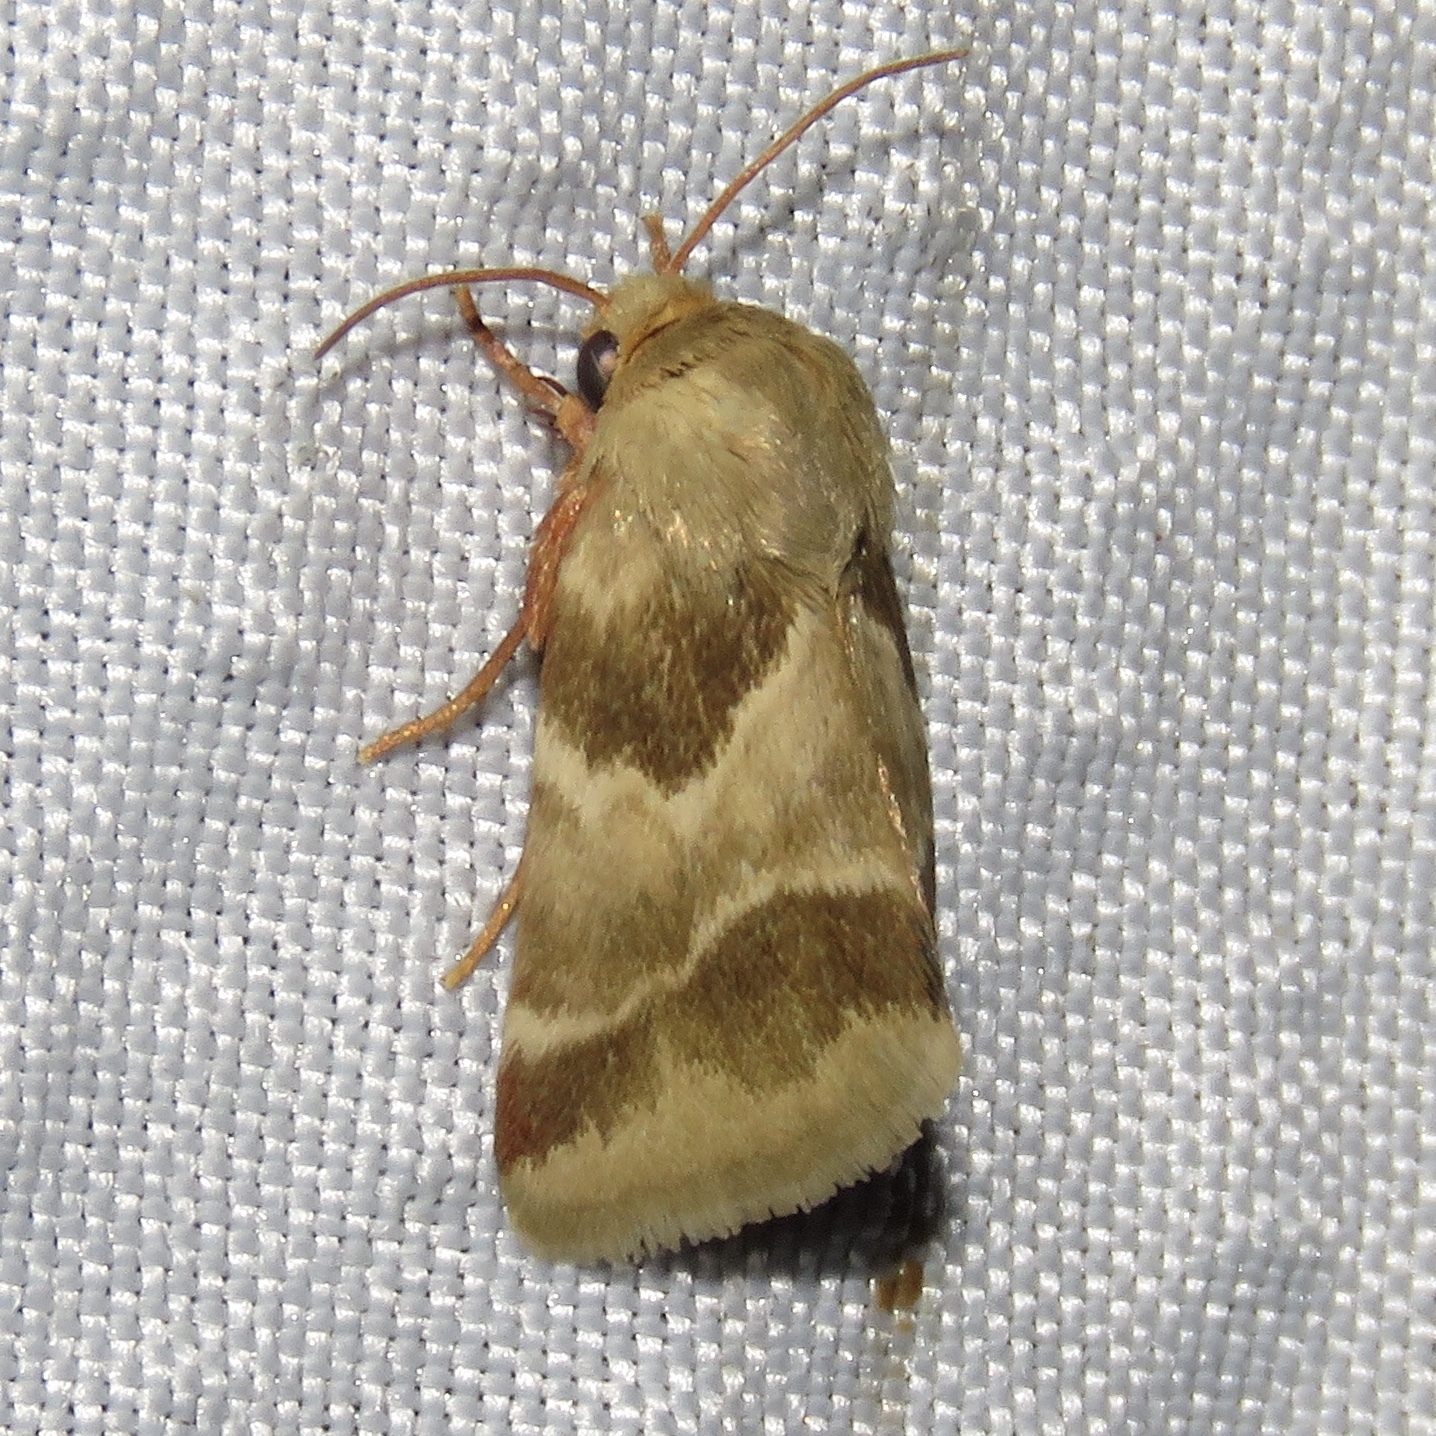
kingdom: Animalia
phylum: Arthropoda
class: Insecta
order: Lepidoptera
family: Noctuidae
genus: Schinia
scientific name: Schinia lynx
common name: Lynx flower moth
